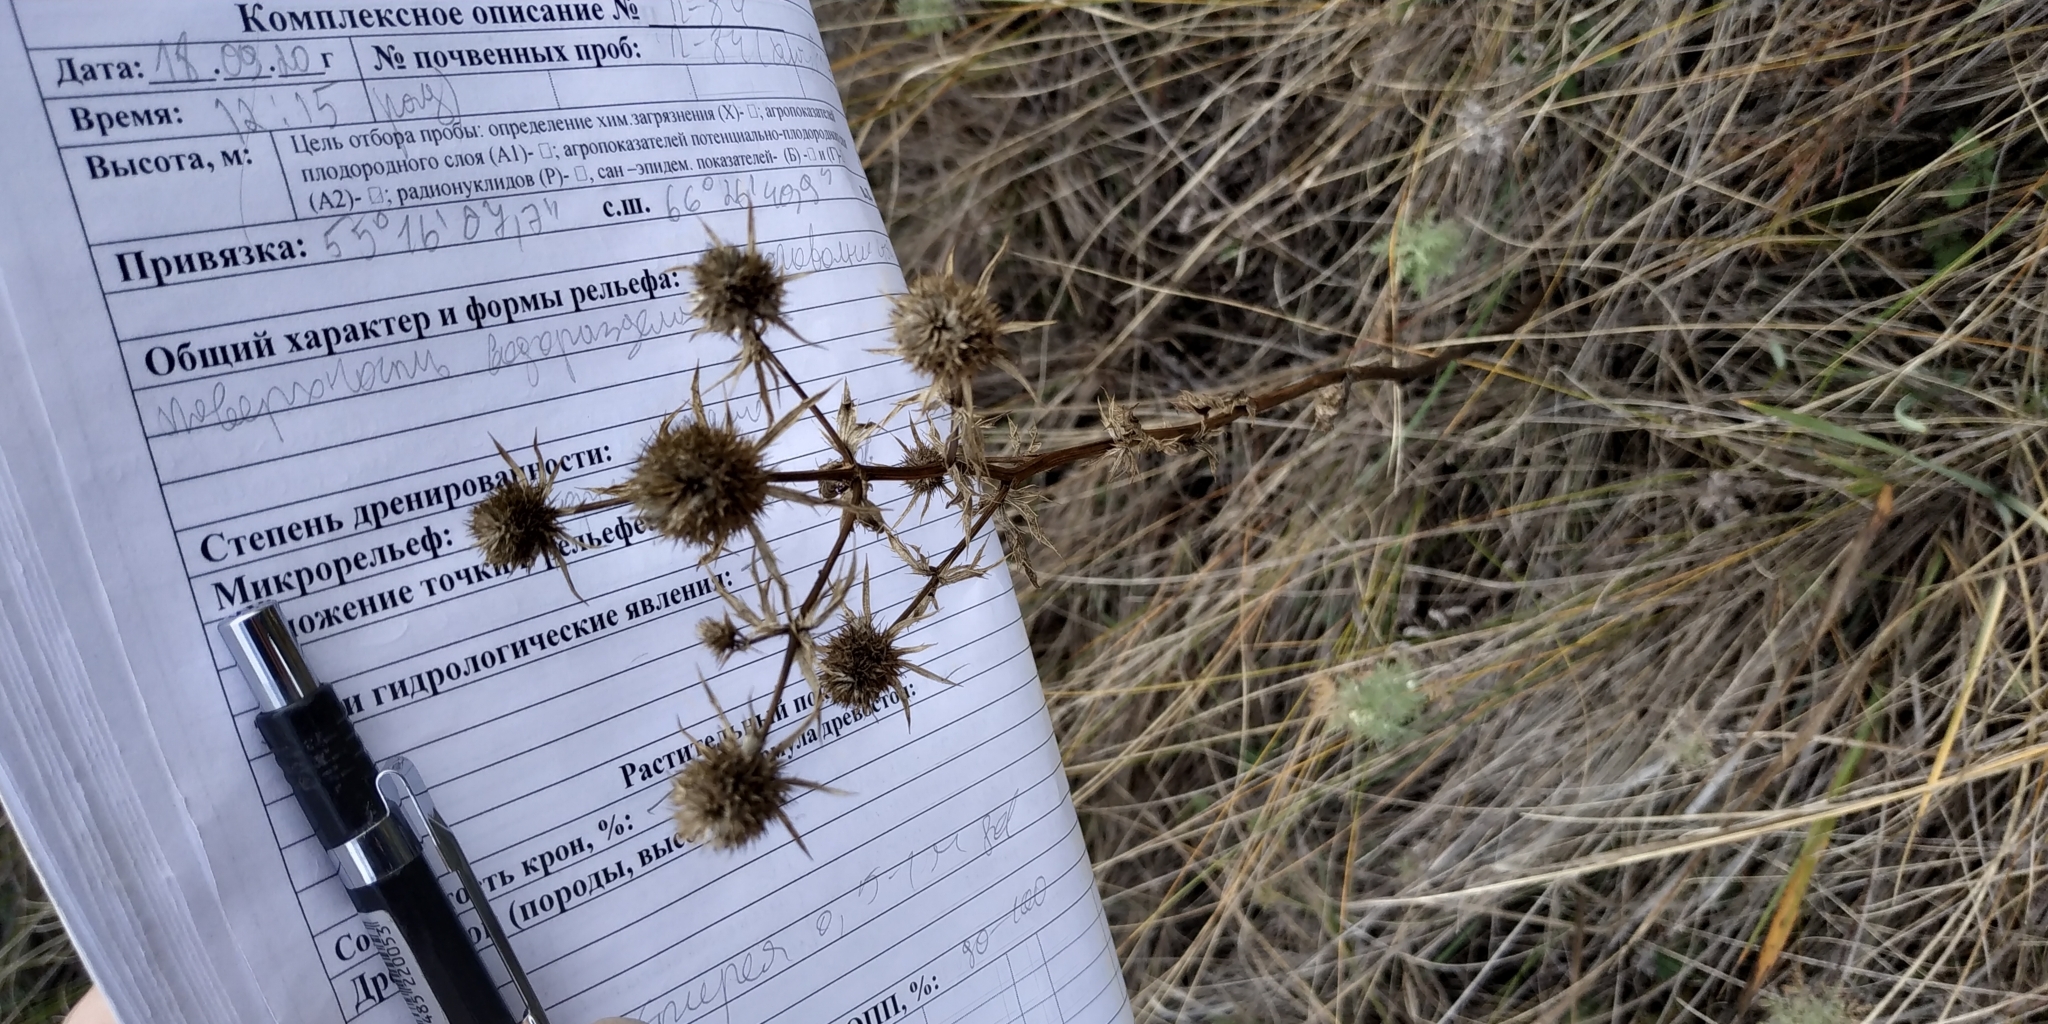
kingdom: Plantae
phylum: Tracheophyta
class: Magnoliopsida
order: Apiales
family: Apiaceae
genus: Eryngium
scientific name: Eryngium planum
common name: Blue eryngo
